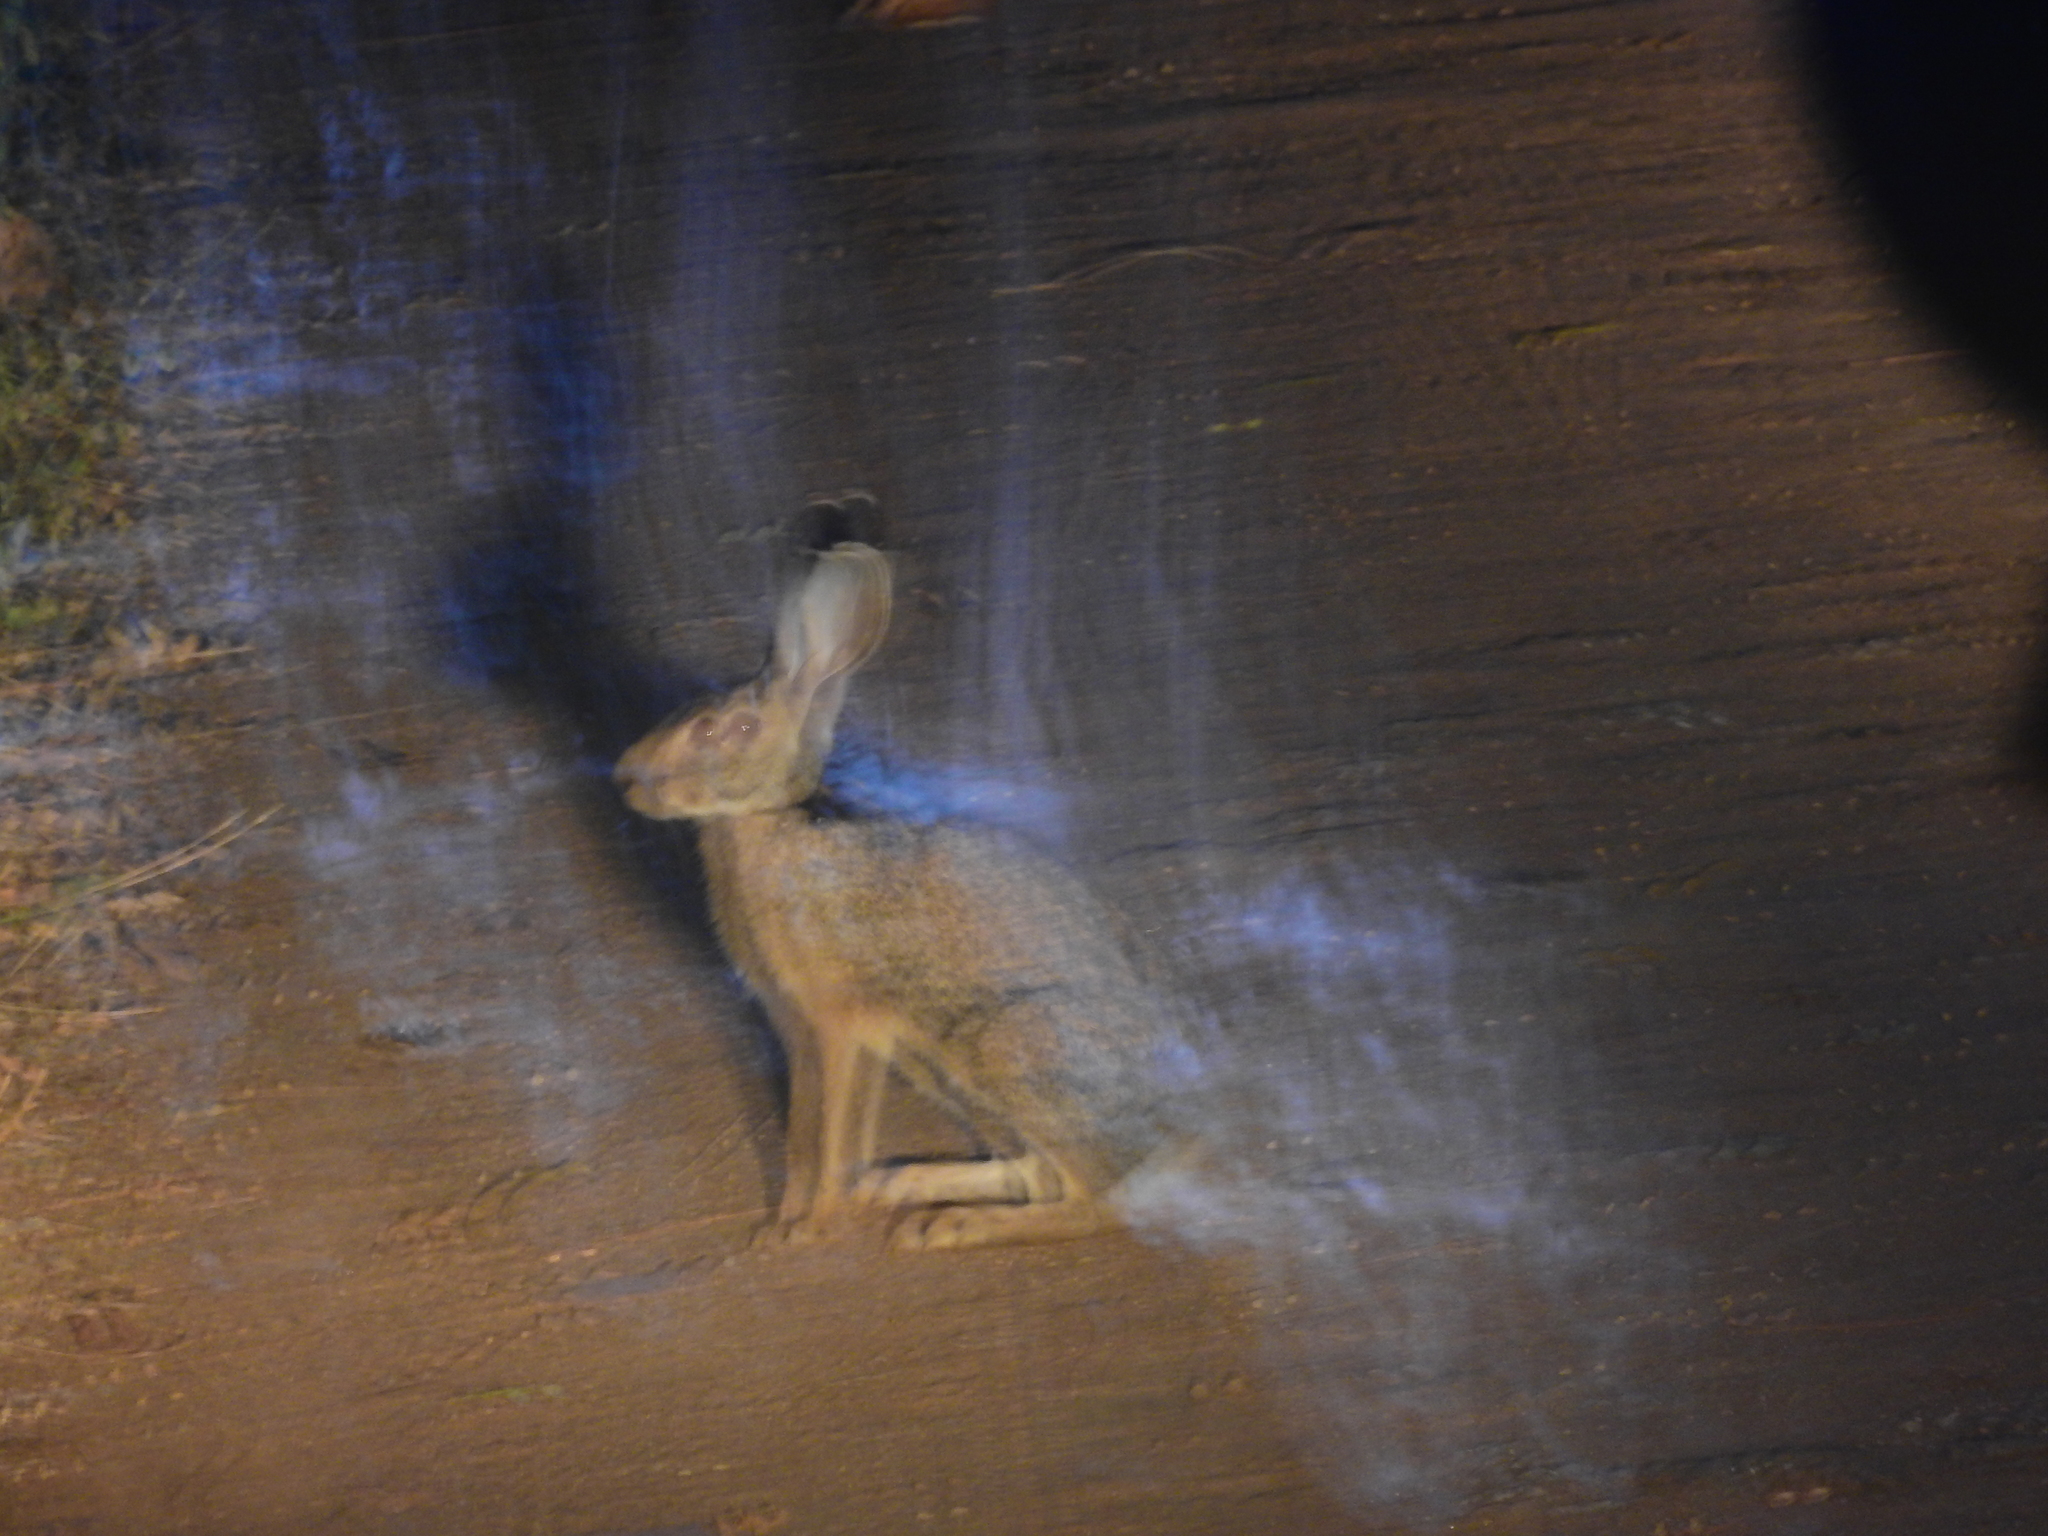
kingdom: Animalia
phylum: Chordata
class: Mammalia
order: Lagomorpha
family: Leporidae
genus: Lepus
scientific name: Lepus nigricollis
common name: Indian hare
